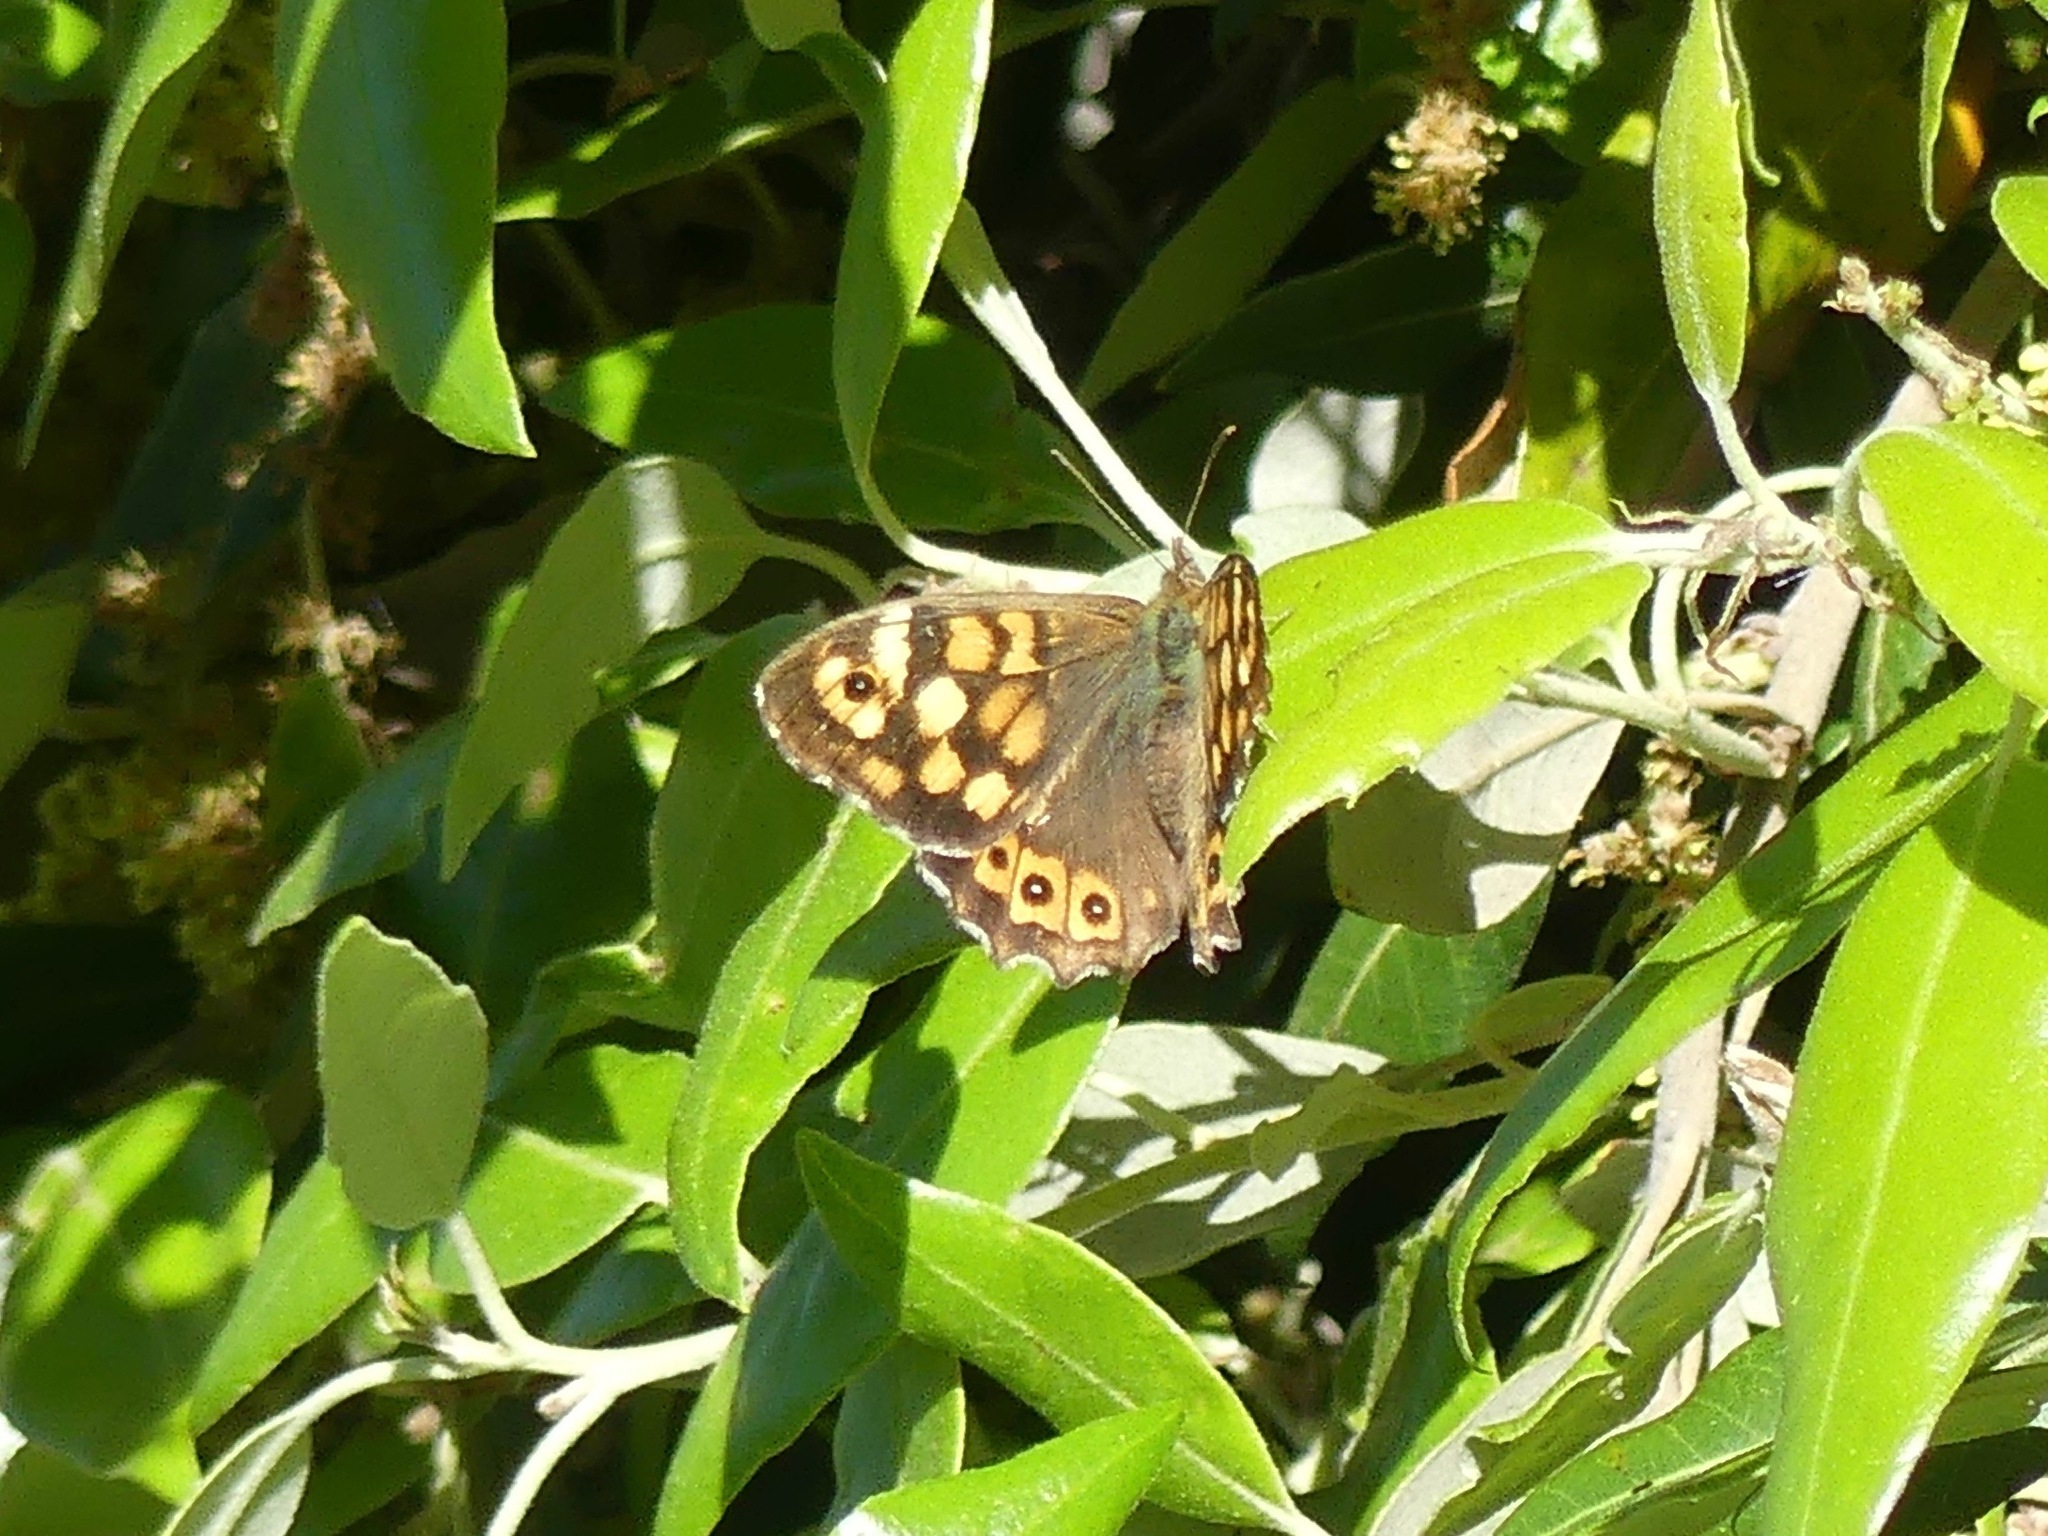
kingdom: Animalia
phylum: Arthropoda
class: Insecta
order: Lepidoptera
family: Nymphalidae
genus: Pararge
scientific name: Pararge aegeria
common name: Speckled wood
